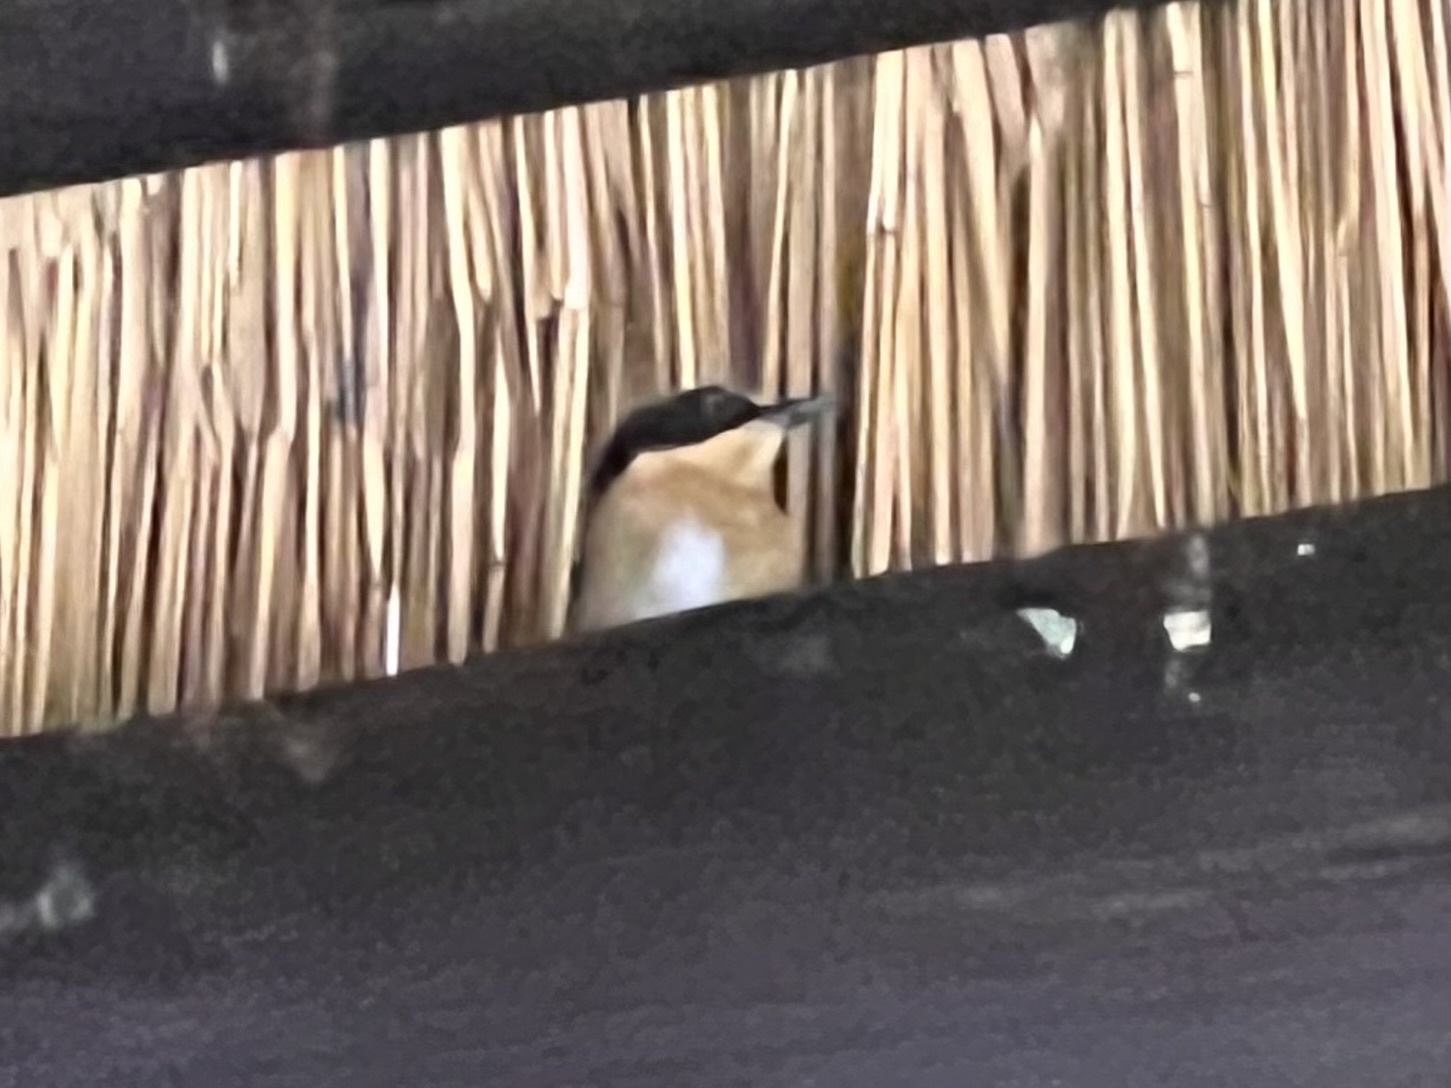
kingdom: Animalia
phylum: Chordata
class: Aves
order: Passeriformes
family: Platysteiridae
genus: Batis
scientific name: Batis pririt
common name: Pririt batis
